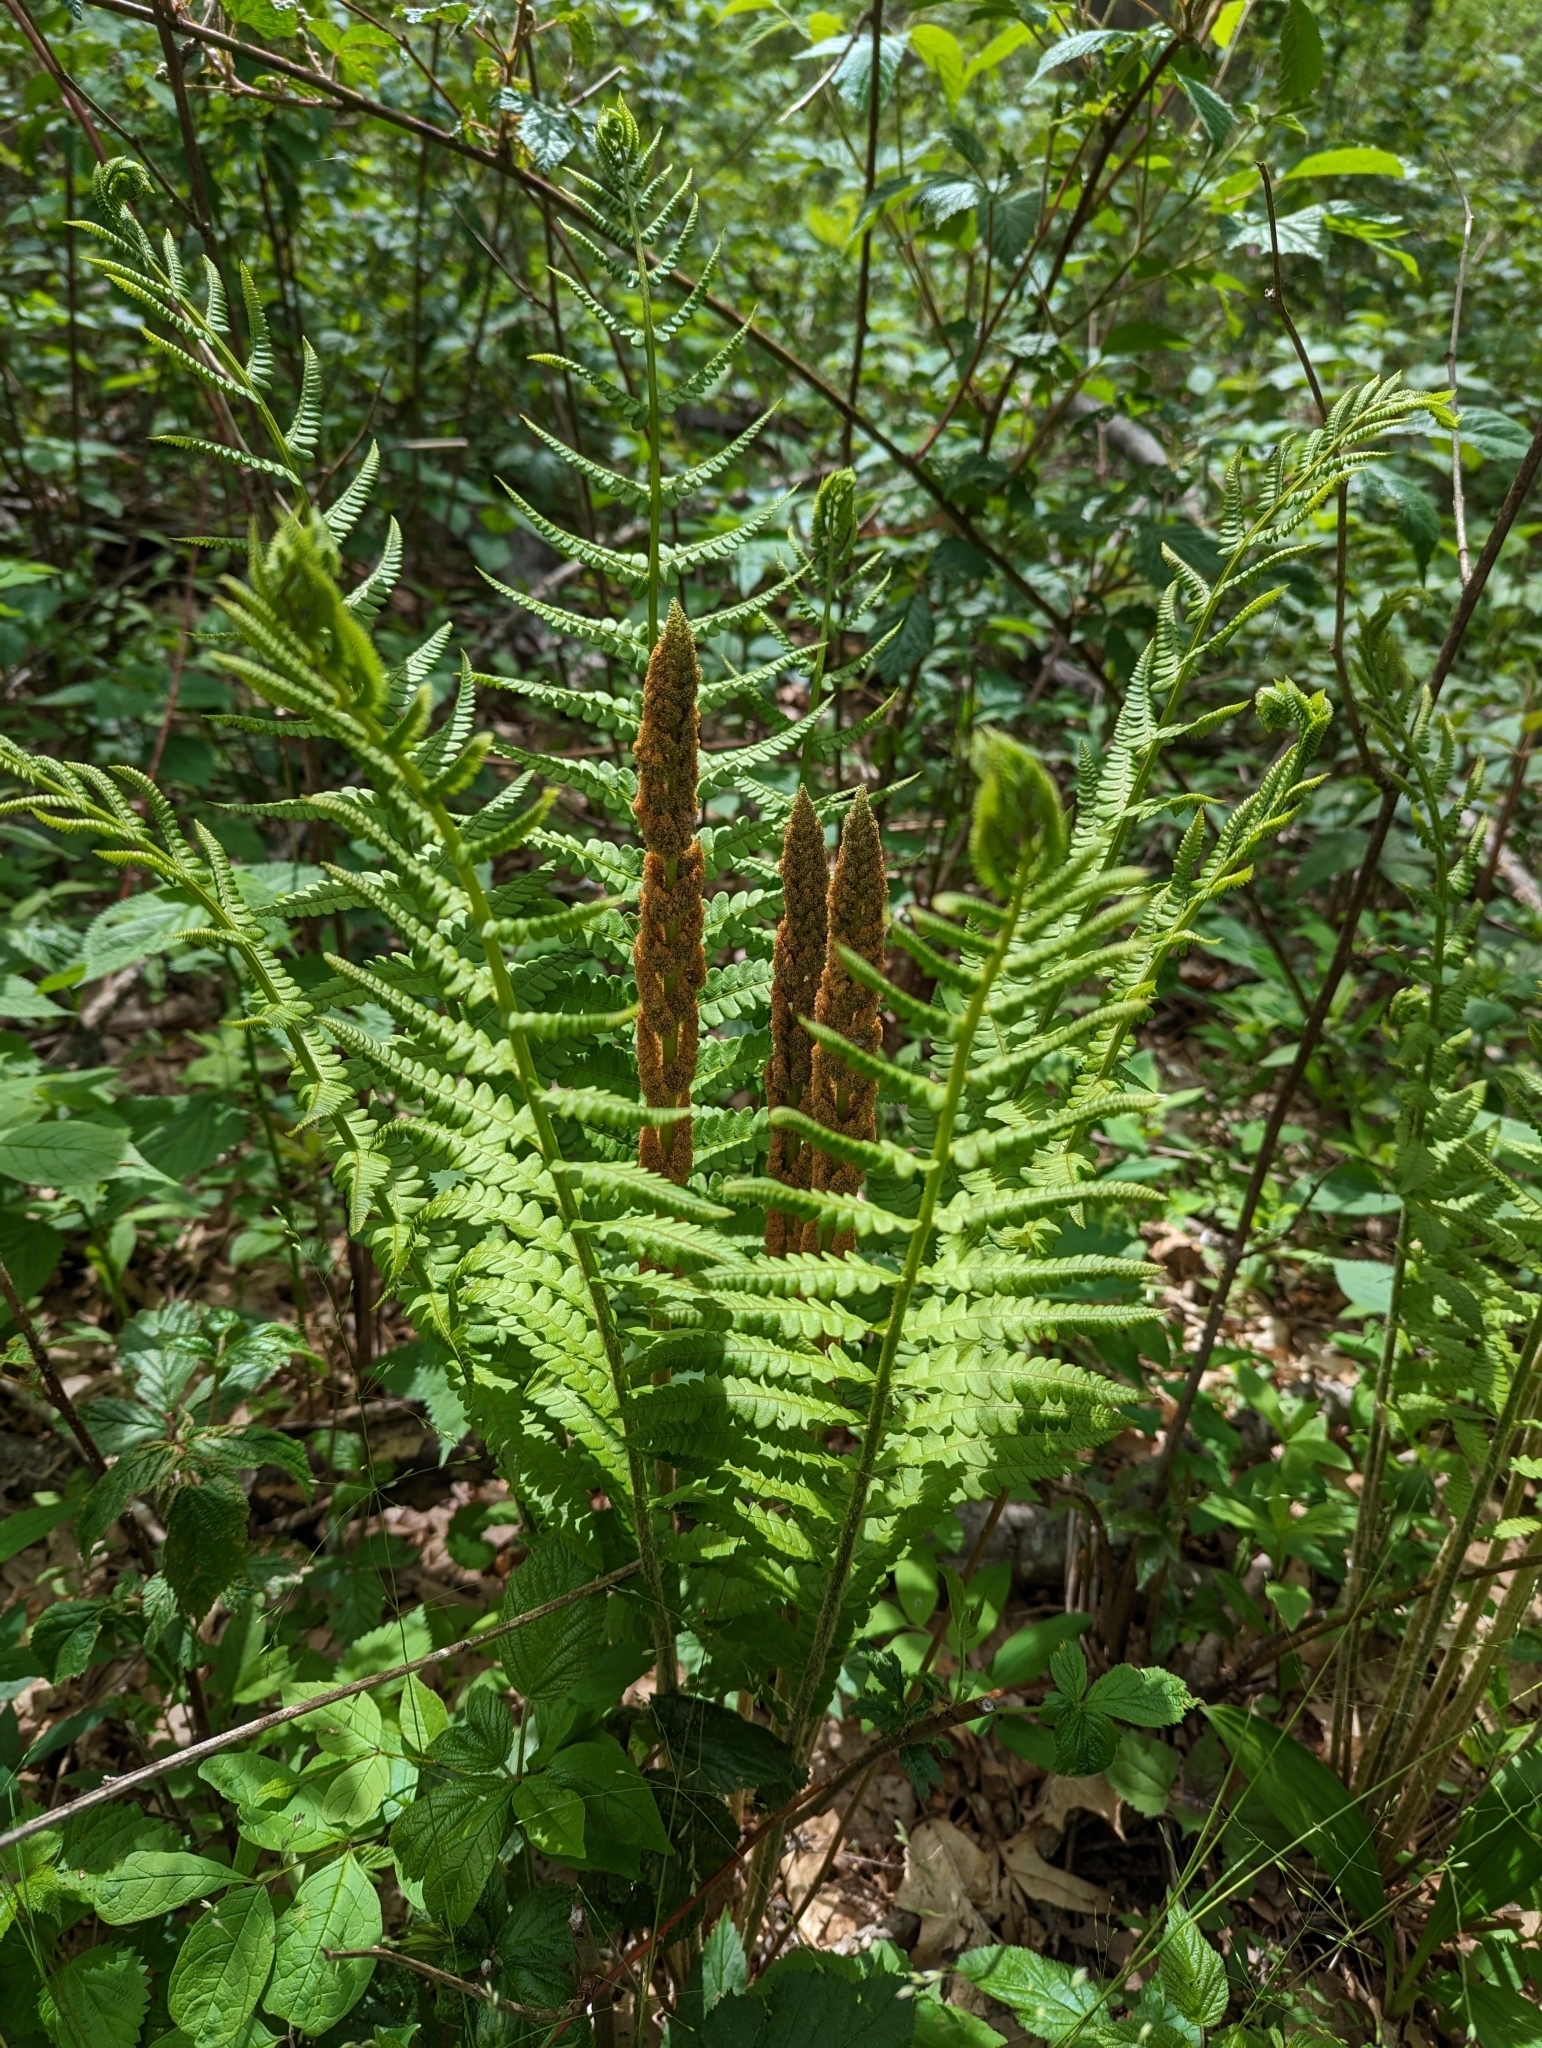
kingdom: Plantae
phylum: Tracheophyta
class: Polypodiopsida
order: Osmundales
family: Osmundaceae
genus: Osmundastrum
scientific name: Osmundastrum cinnamomeum
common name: Cinnamon fern
